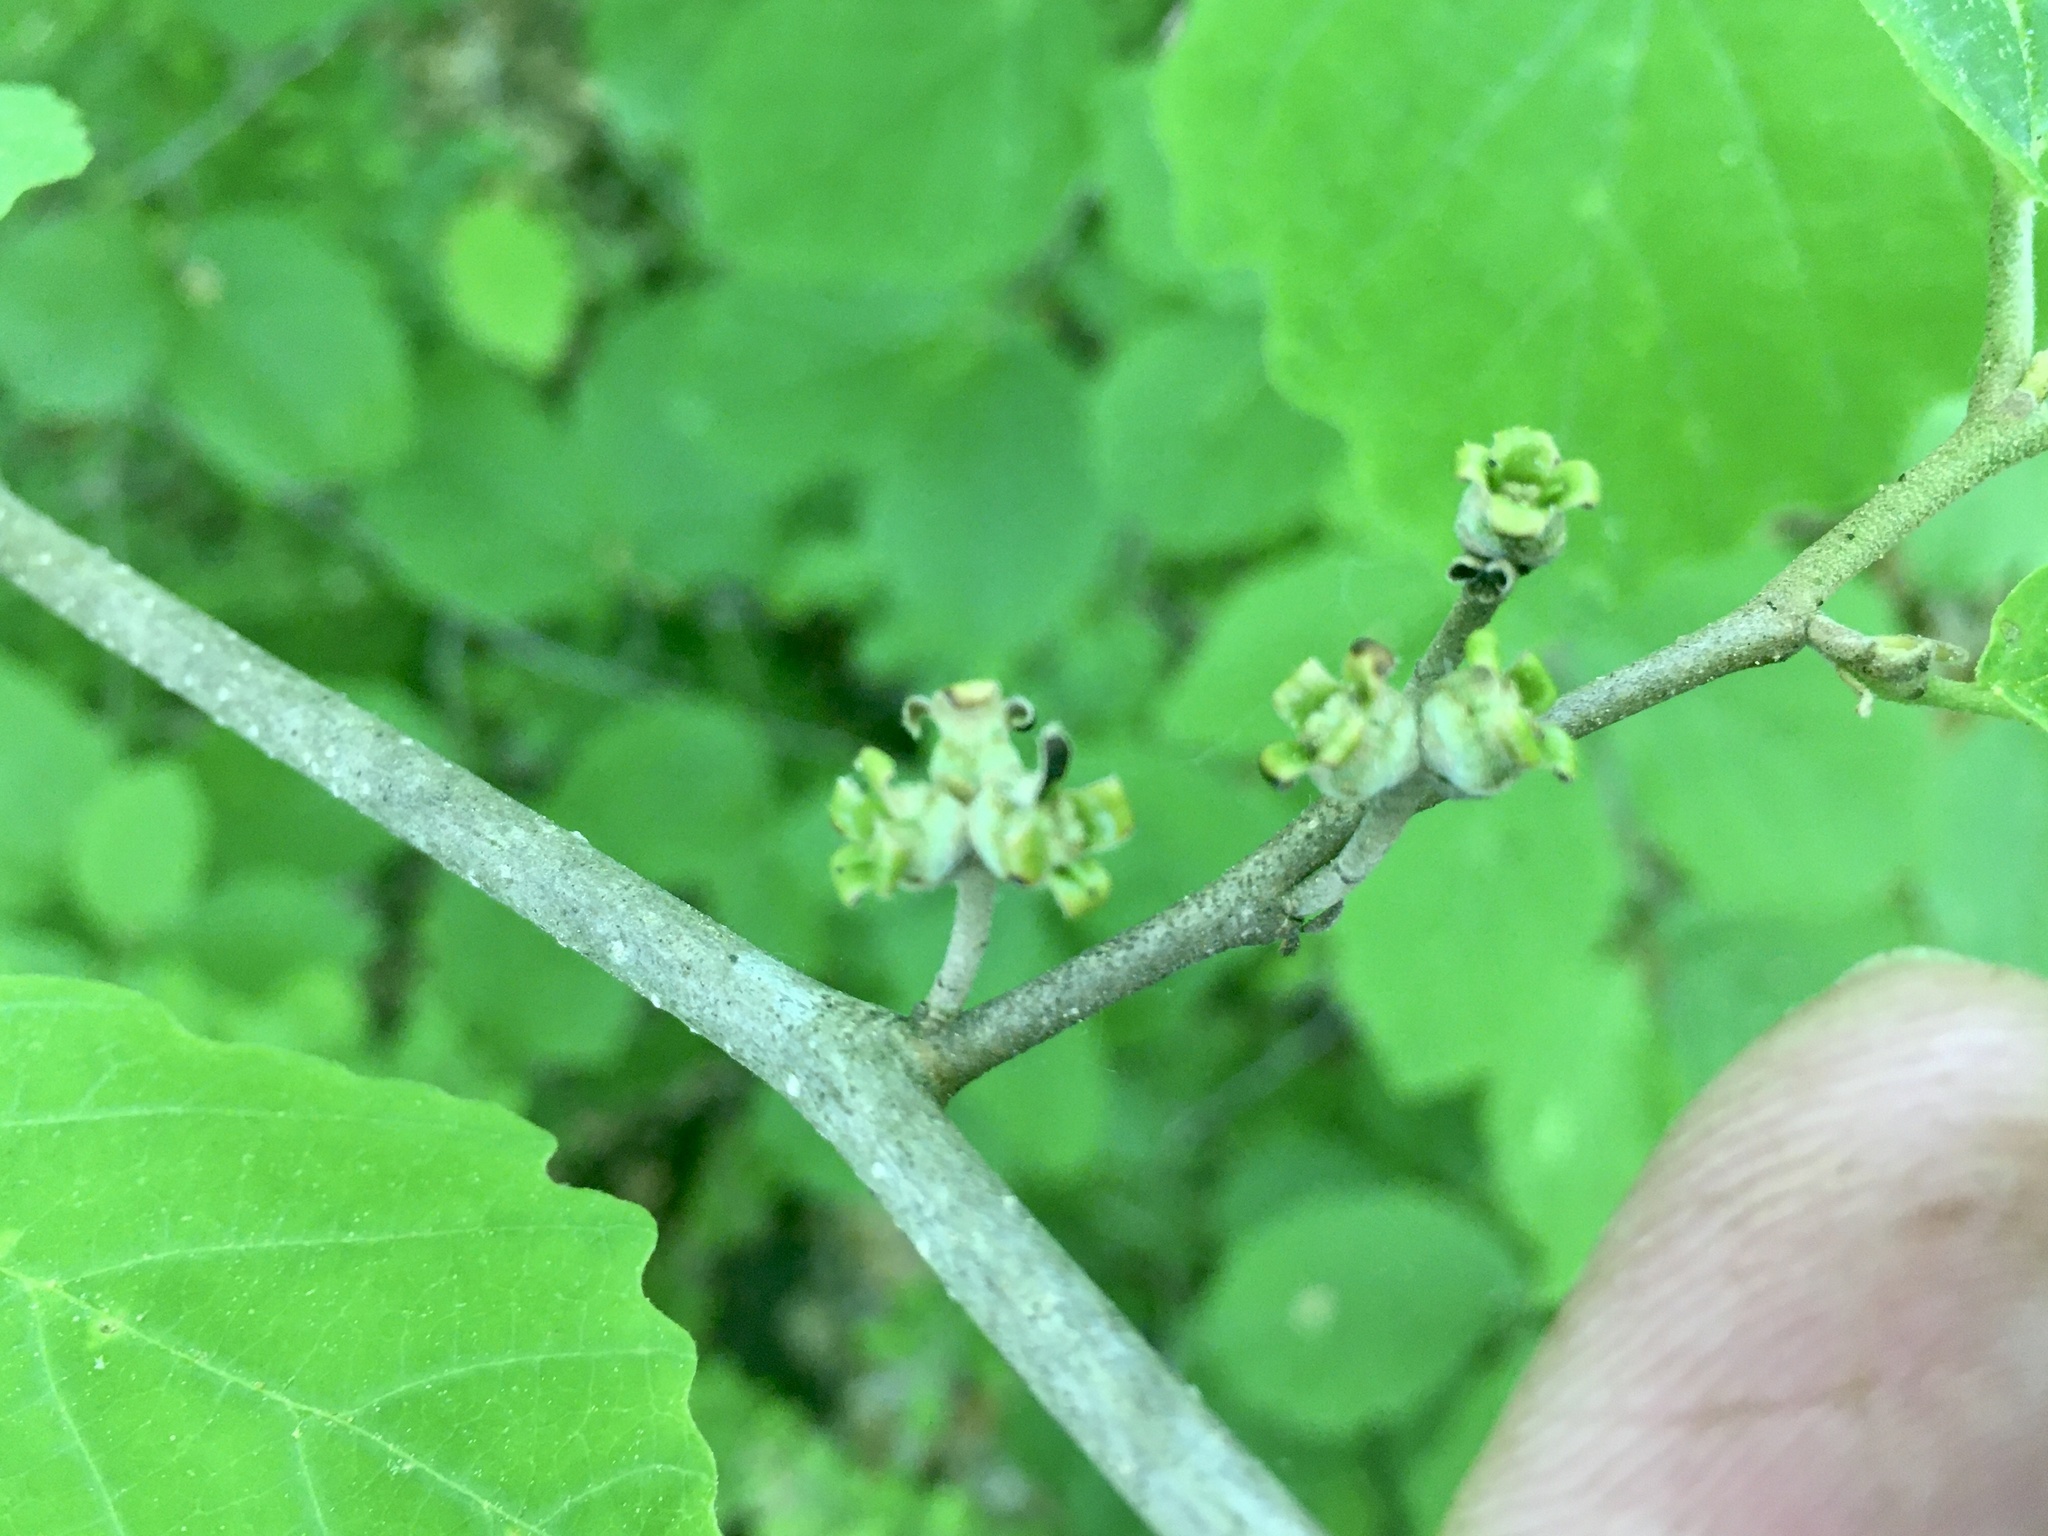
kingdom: Plantae
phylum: Tracheophyta
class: Magnoliopsida
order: Saxifragales
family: Hamamelidaceae
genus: Hamamelis
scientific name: Hamamelis virginiana
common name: Witch-hazel
